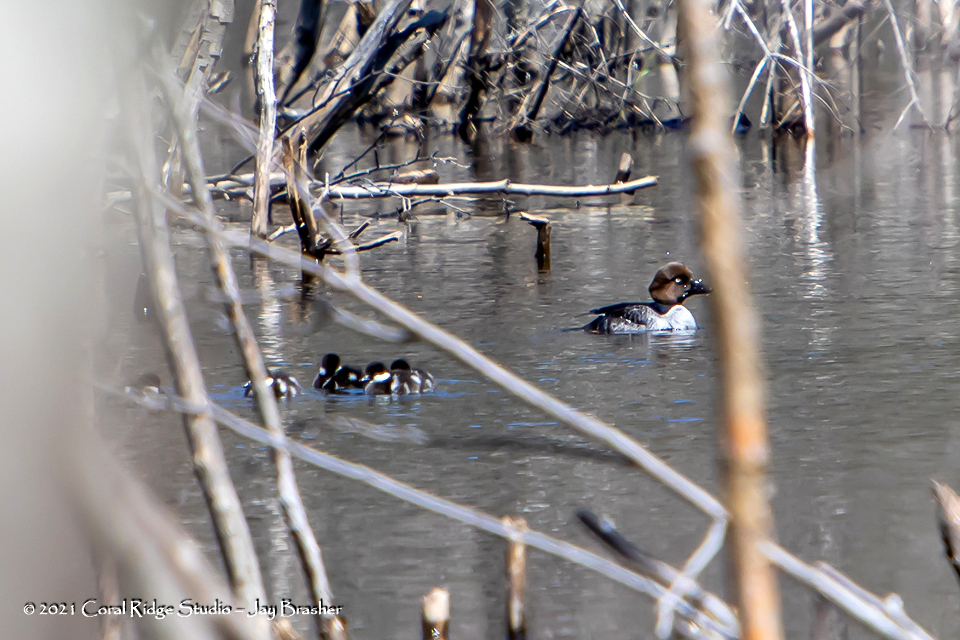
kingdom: Animalia
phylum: Chordata
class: Aves
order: Anseriformes
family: Anatidae
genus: Bucephala
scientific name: Bucephala clangula
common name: Common goldeneye
